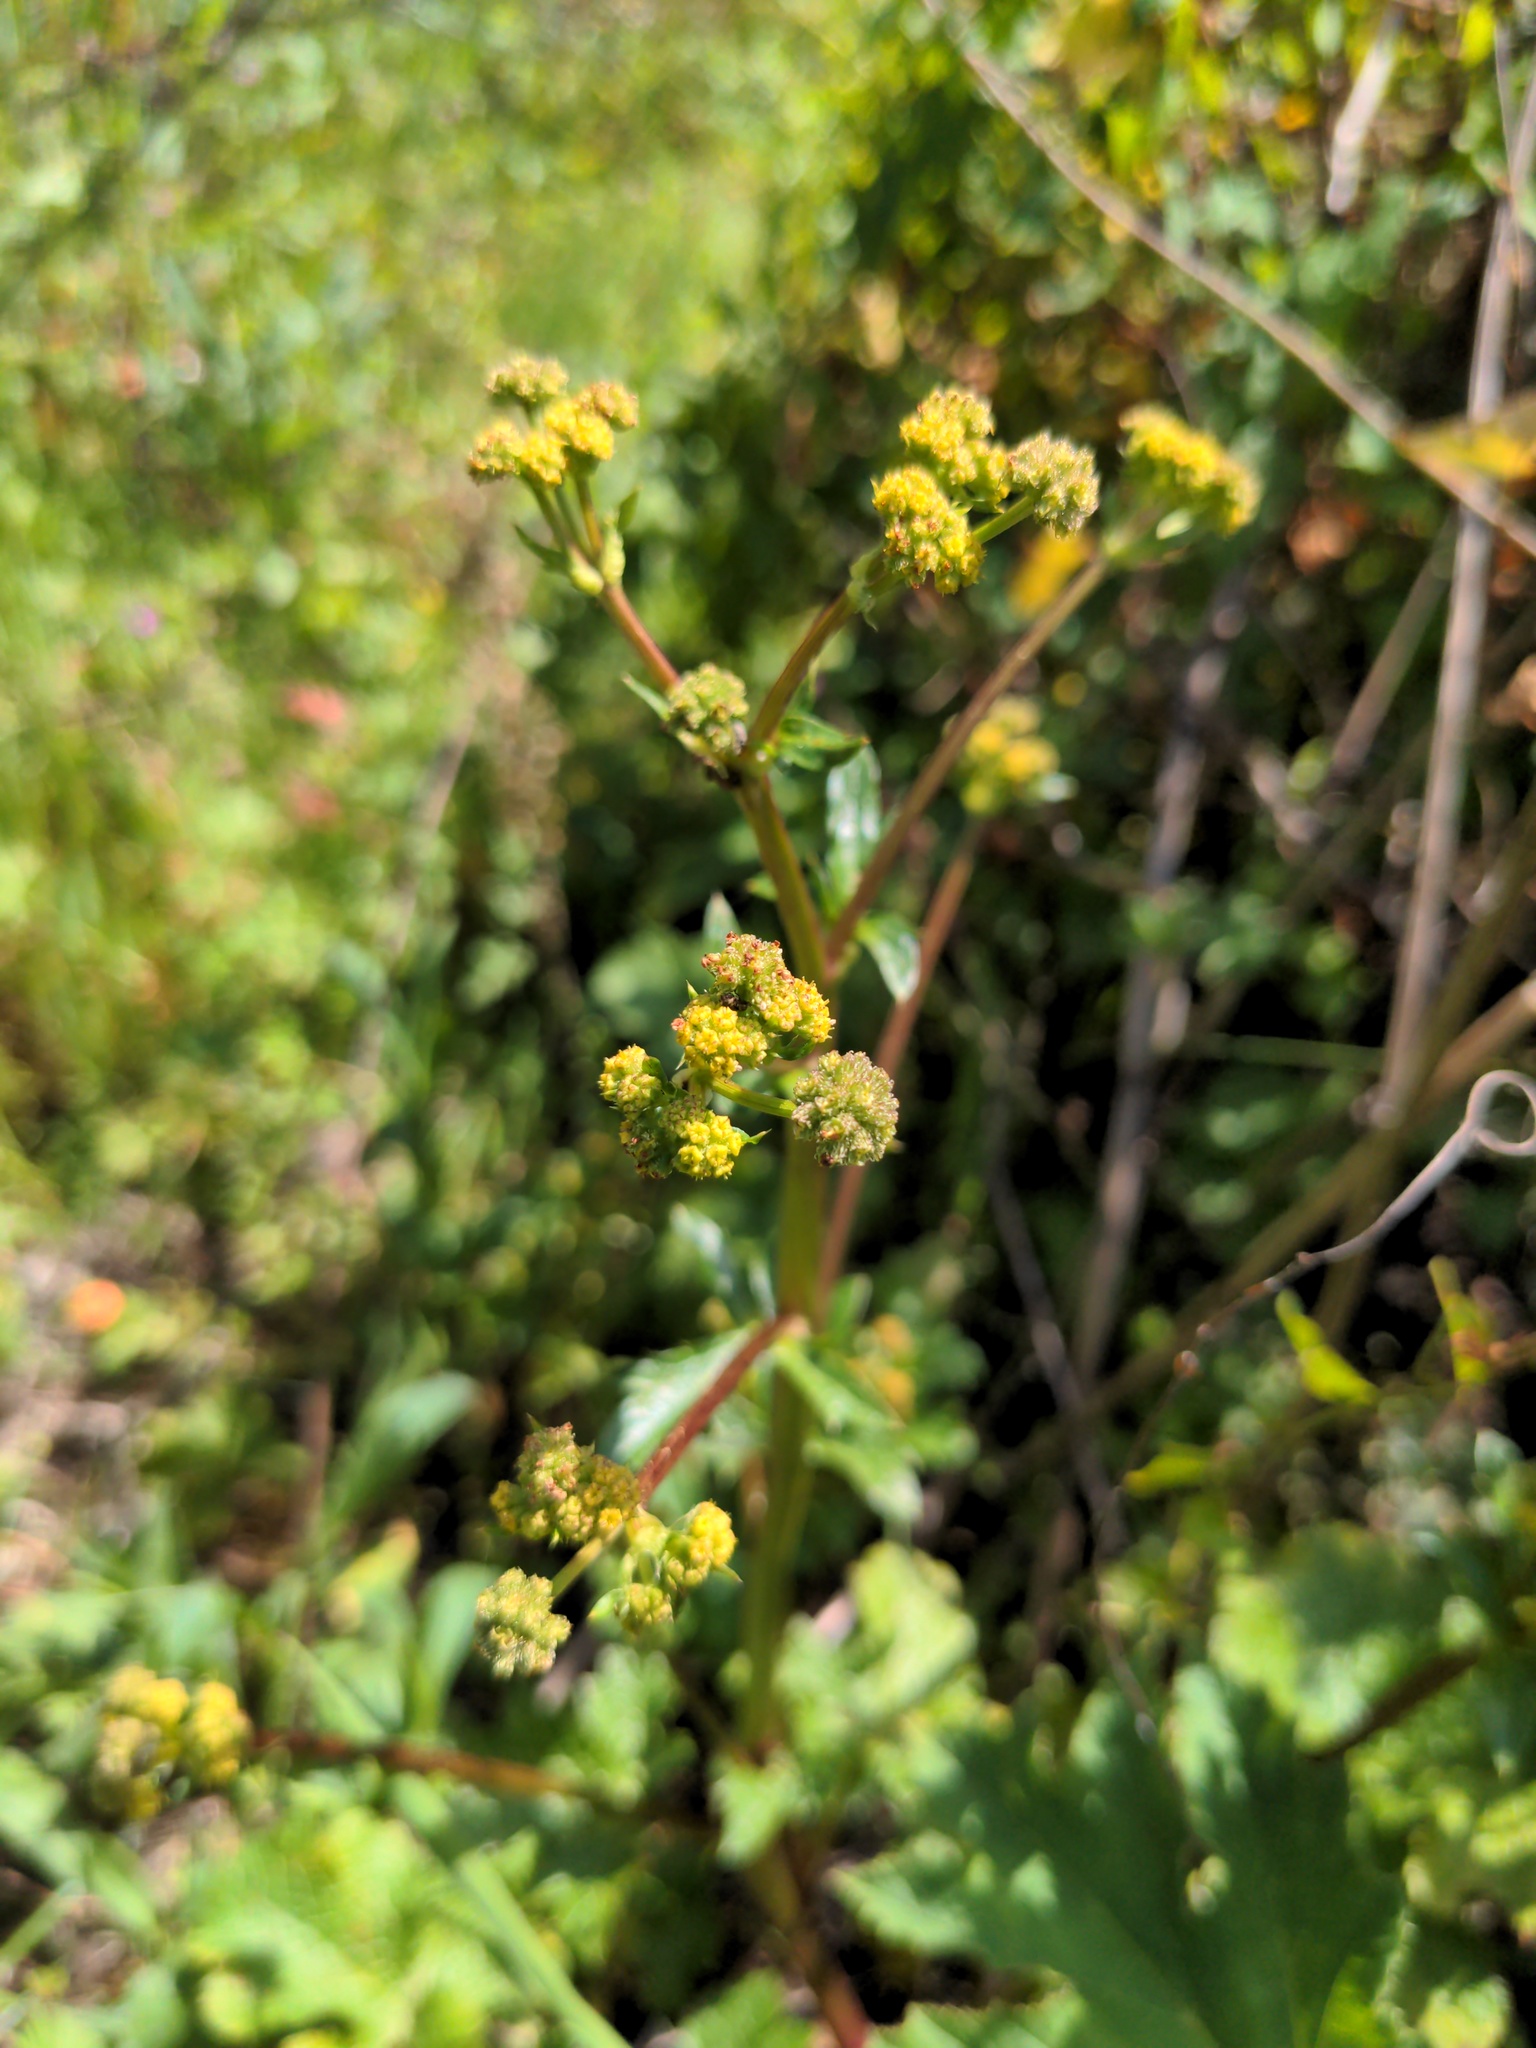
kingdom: Plantae
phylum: Tracheophyta
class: Magnoliopsida
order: Apiales
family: Apiaceae
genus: Sanicula
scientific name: Sanicula crassicaulis
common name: Western snakeroot
